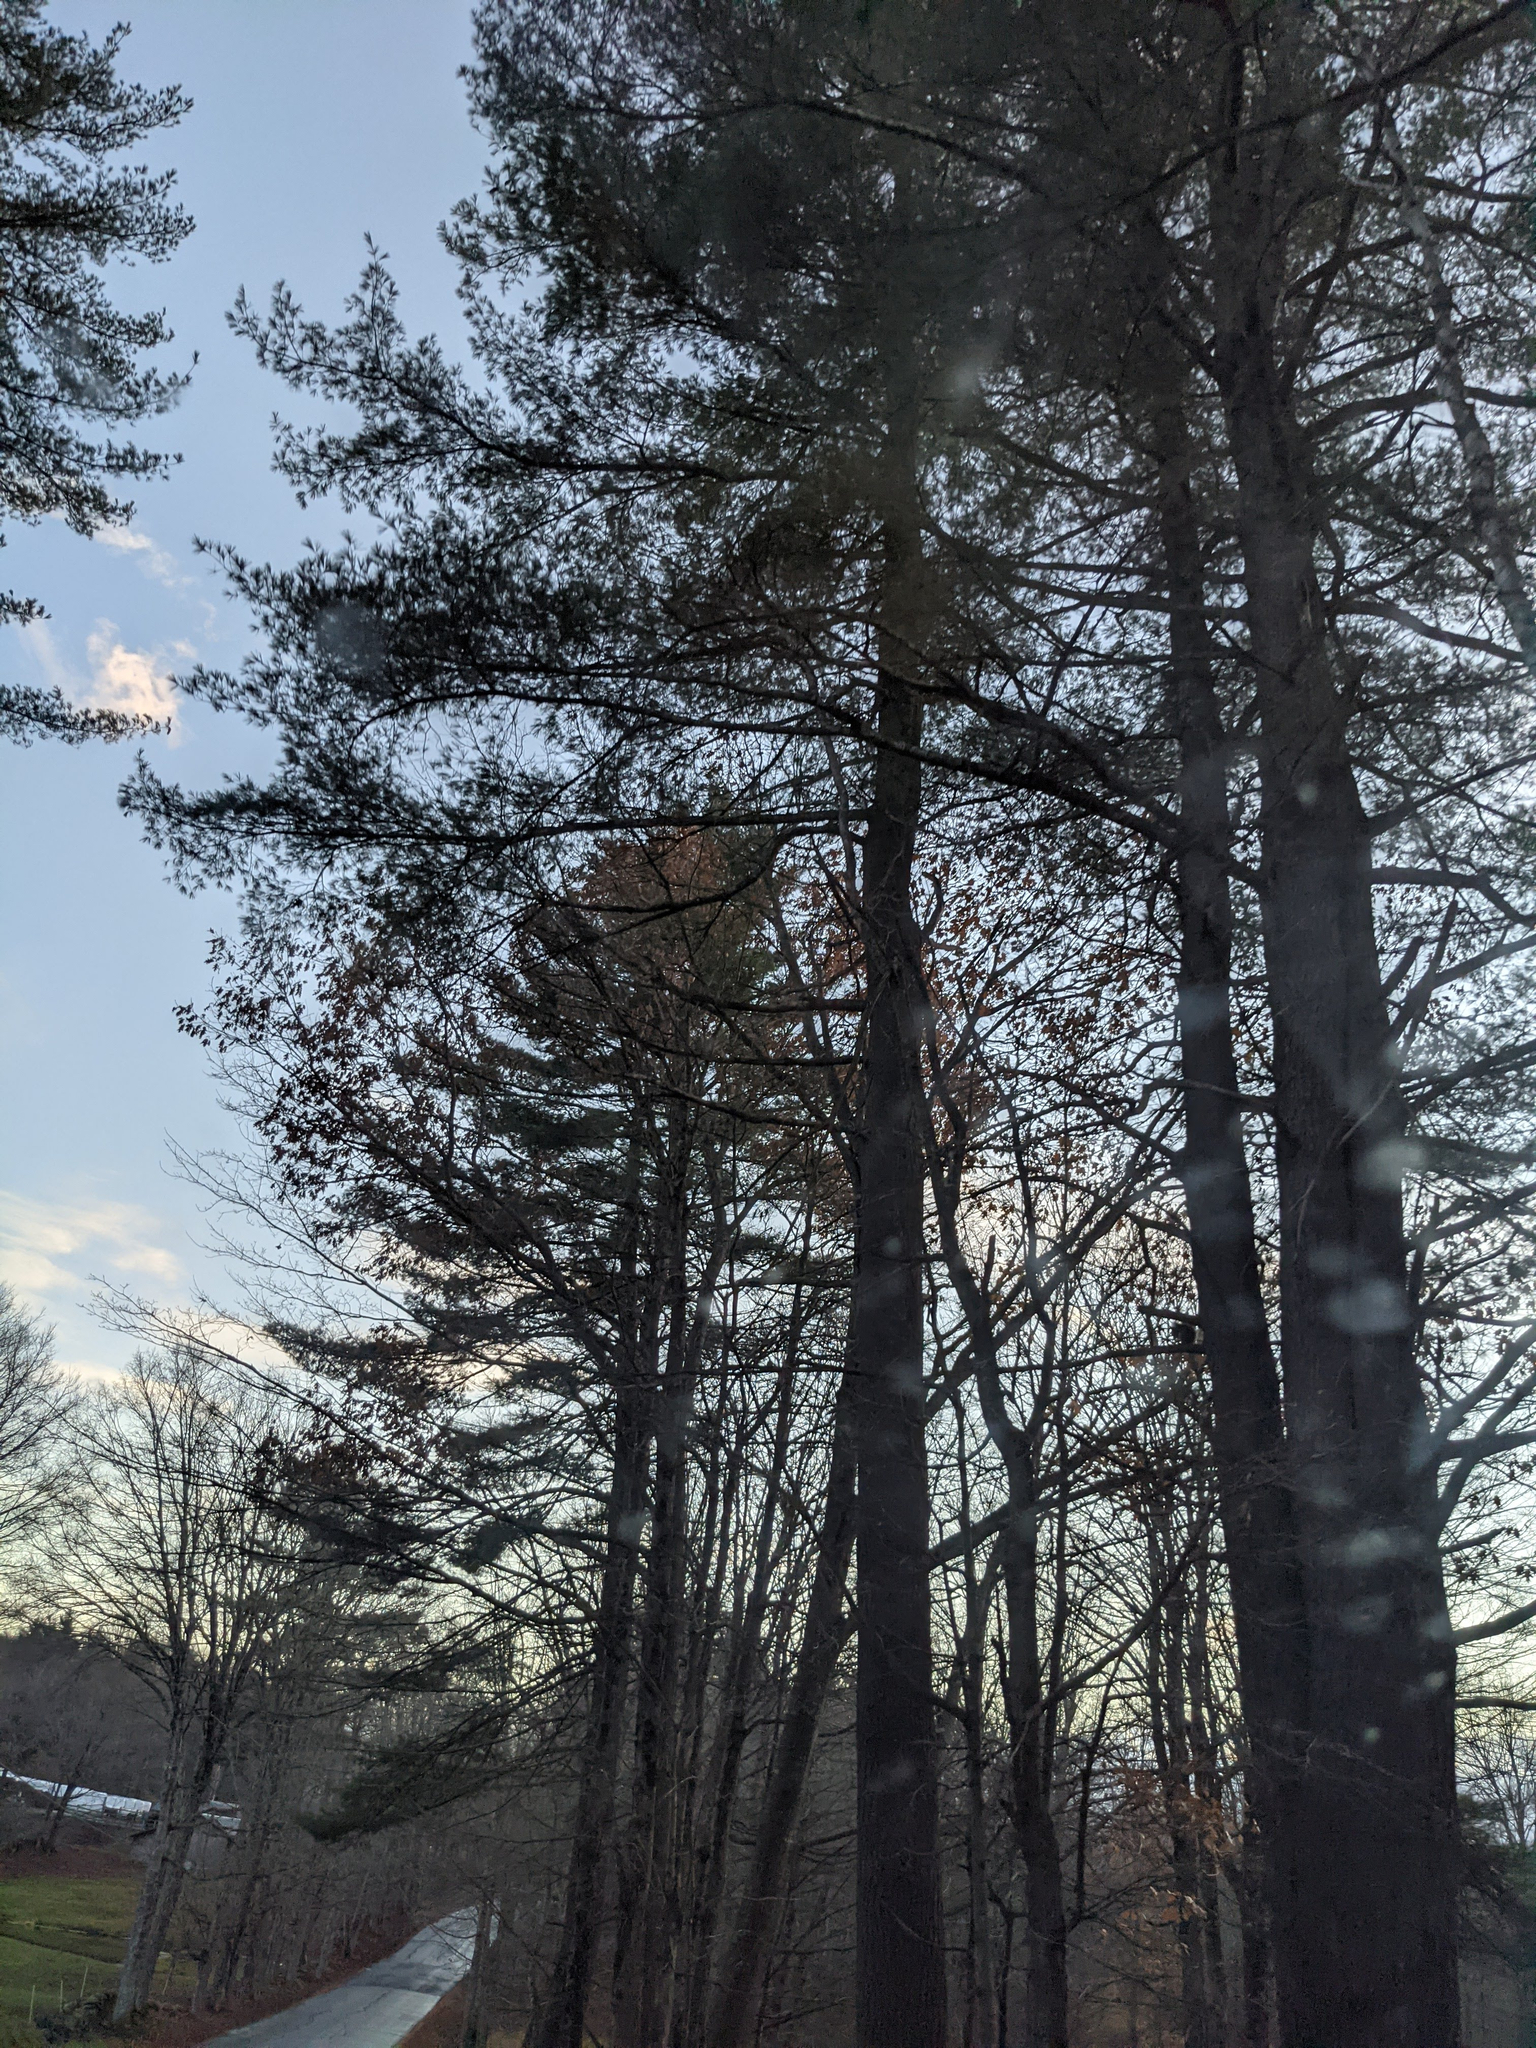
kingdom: Plantae
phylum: Tracheophyta
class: Pinopsida
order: Pinales
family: Pinaceae
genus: Pinus
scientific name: Pinus strobus
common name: Weymouth pine
